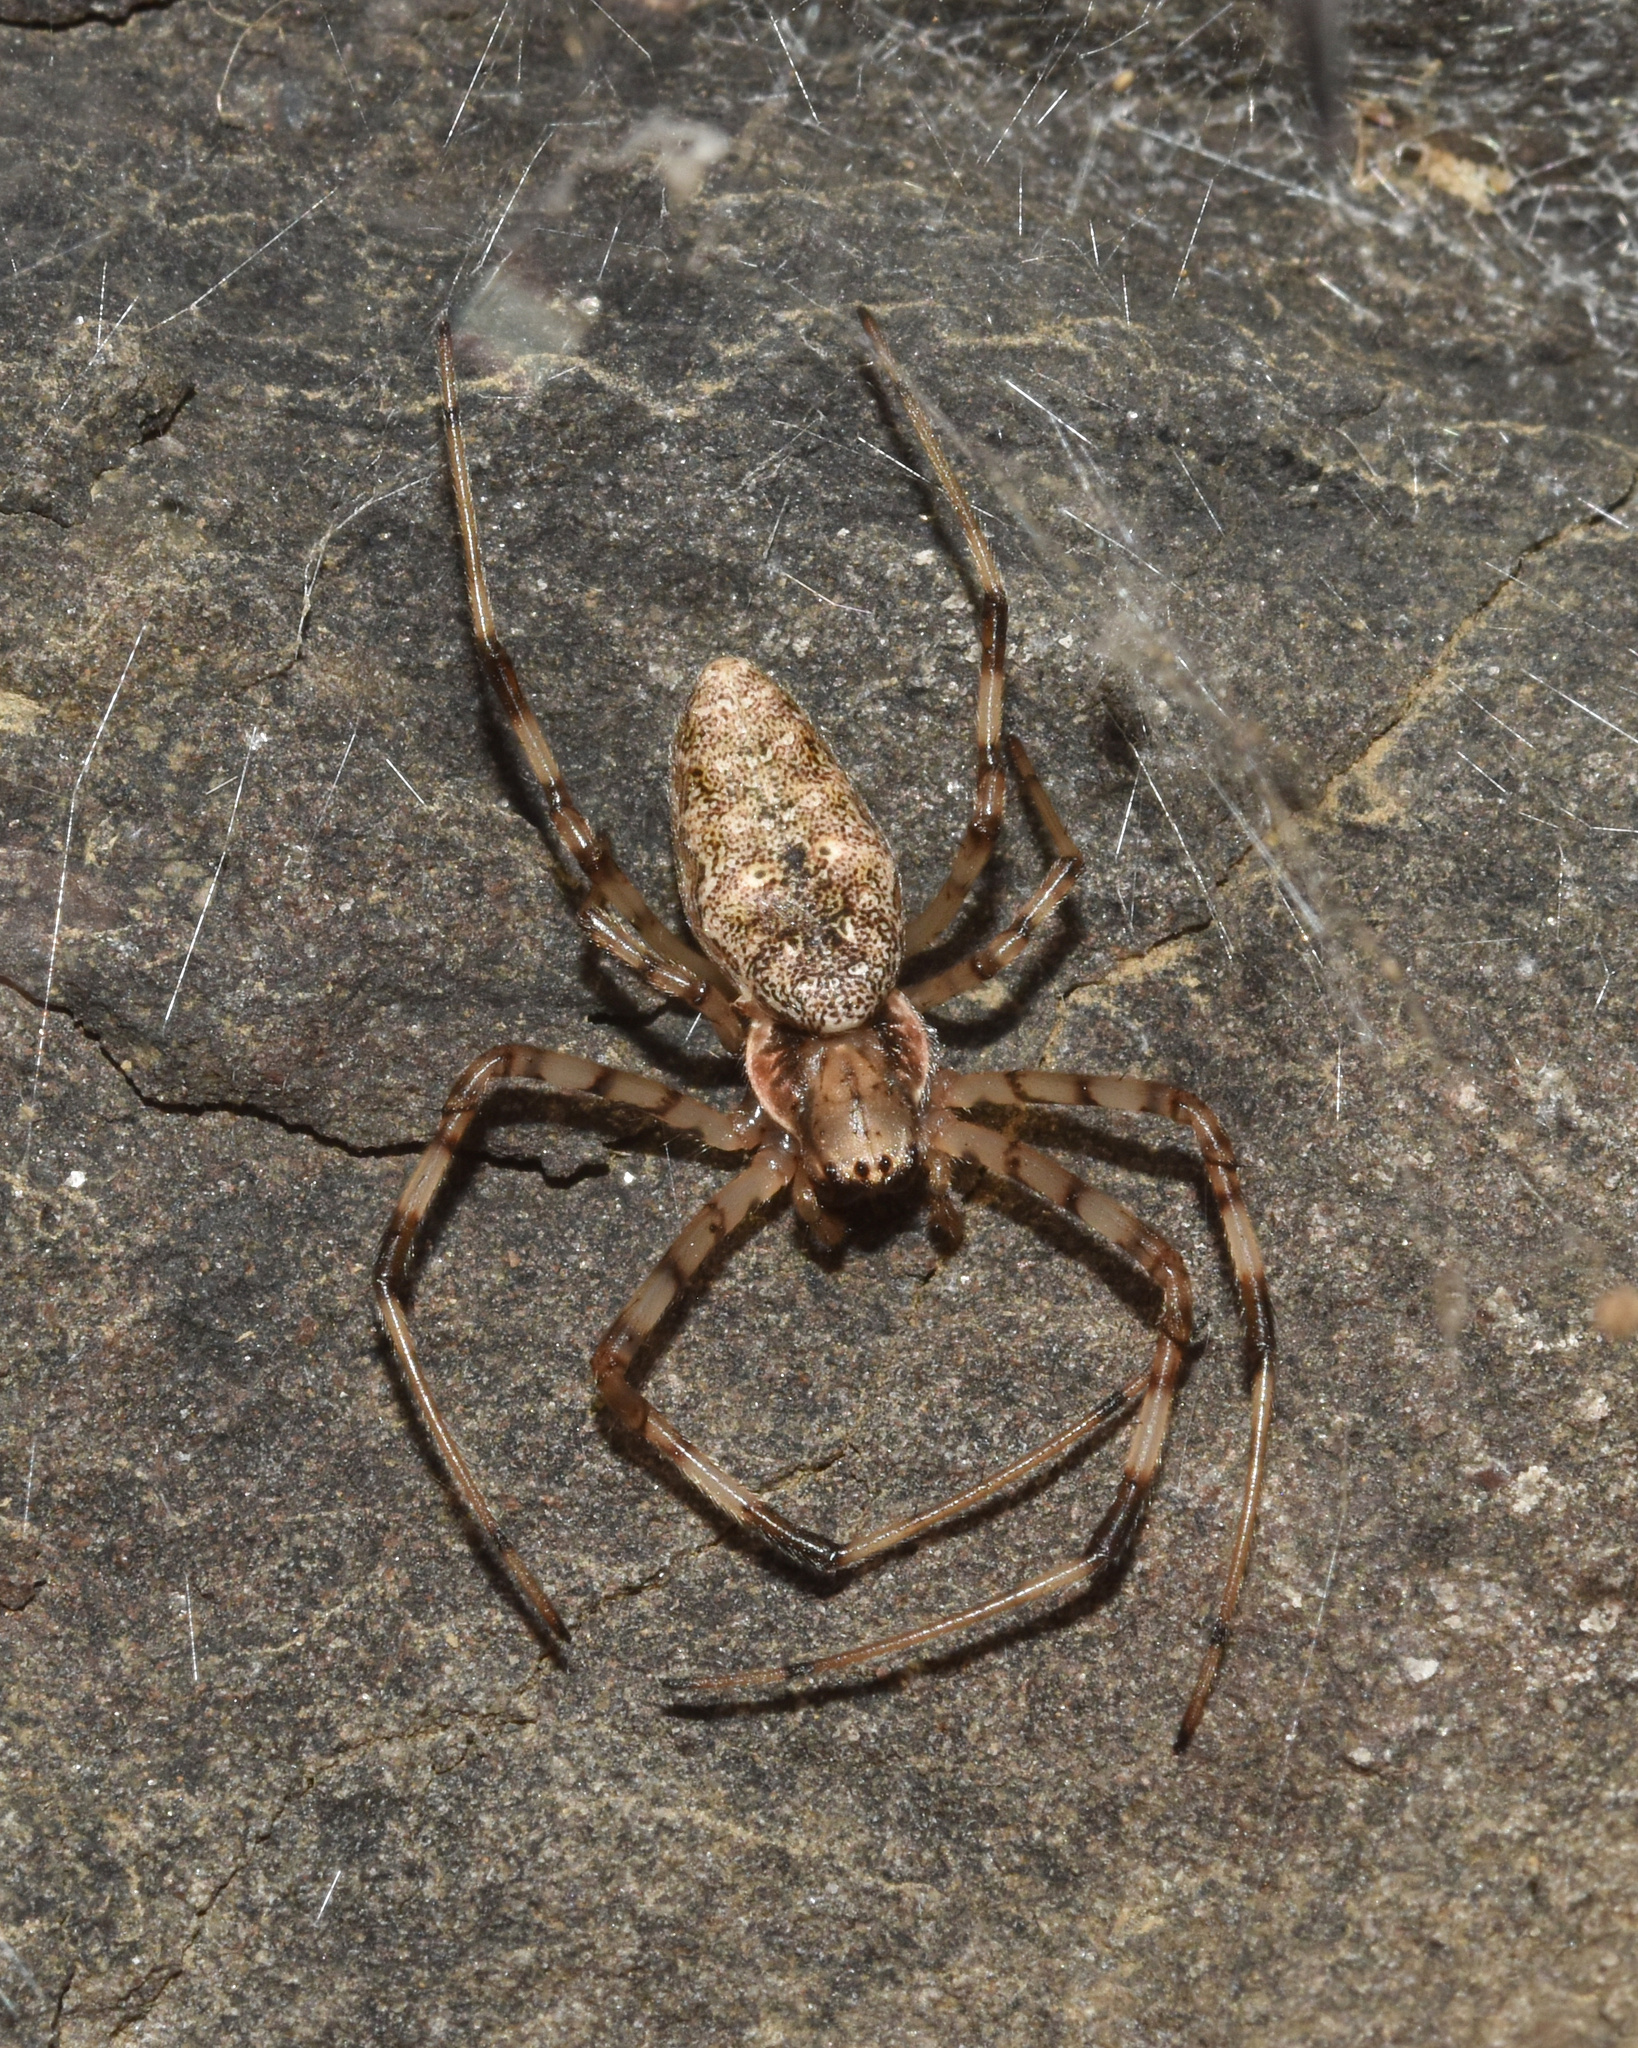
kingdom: Animalia
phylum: Arthropoda
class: Arachnida
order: Araneae
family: Araneidae
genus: Nephilingis
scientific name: Nephilingis cruentata
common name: African hermit spider
